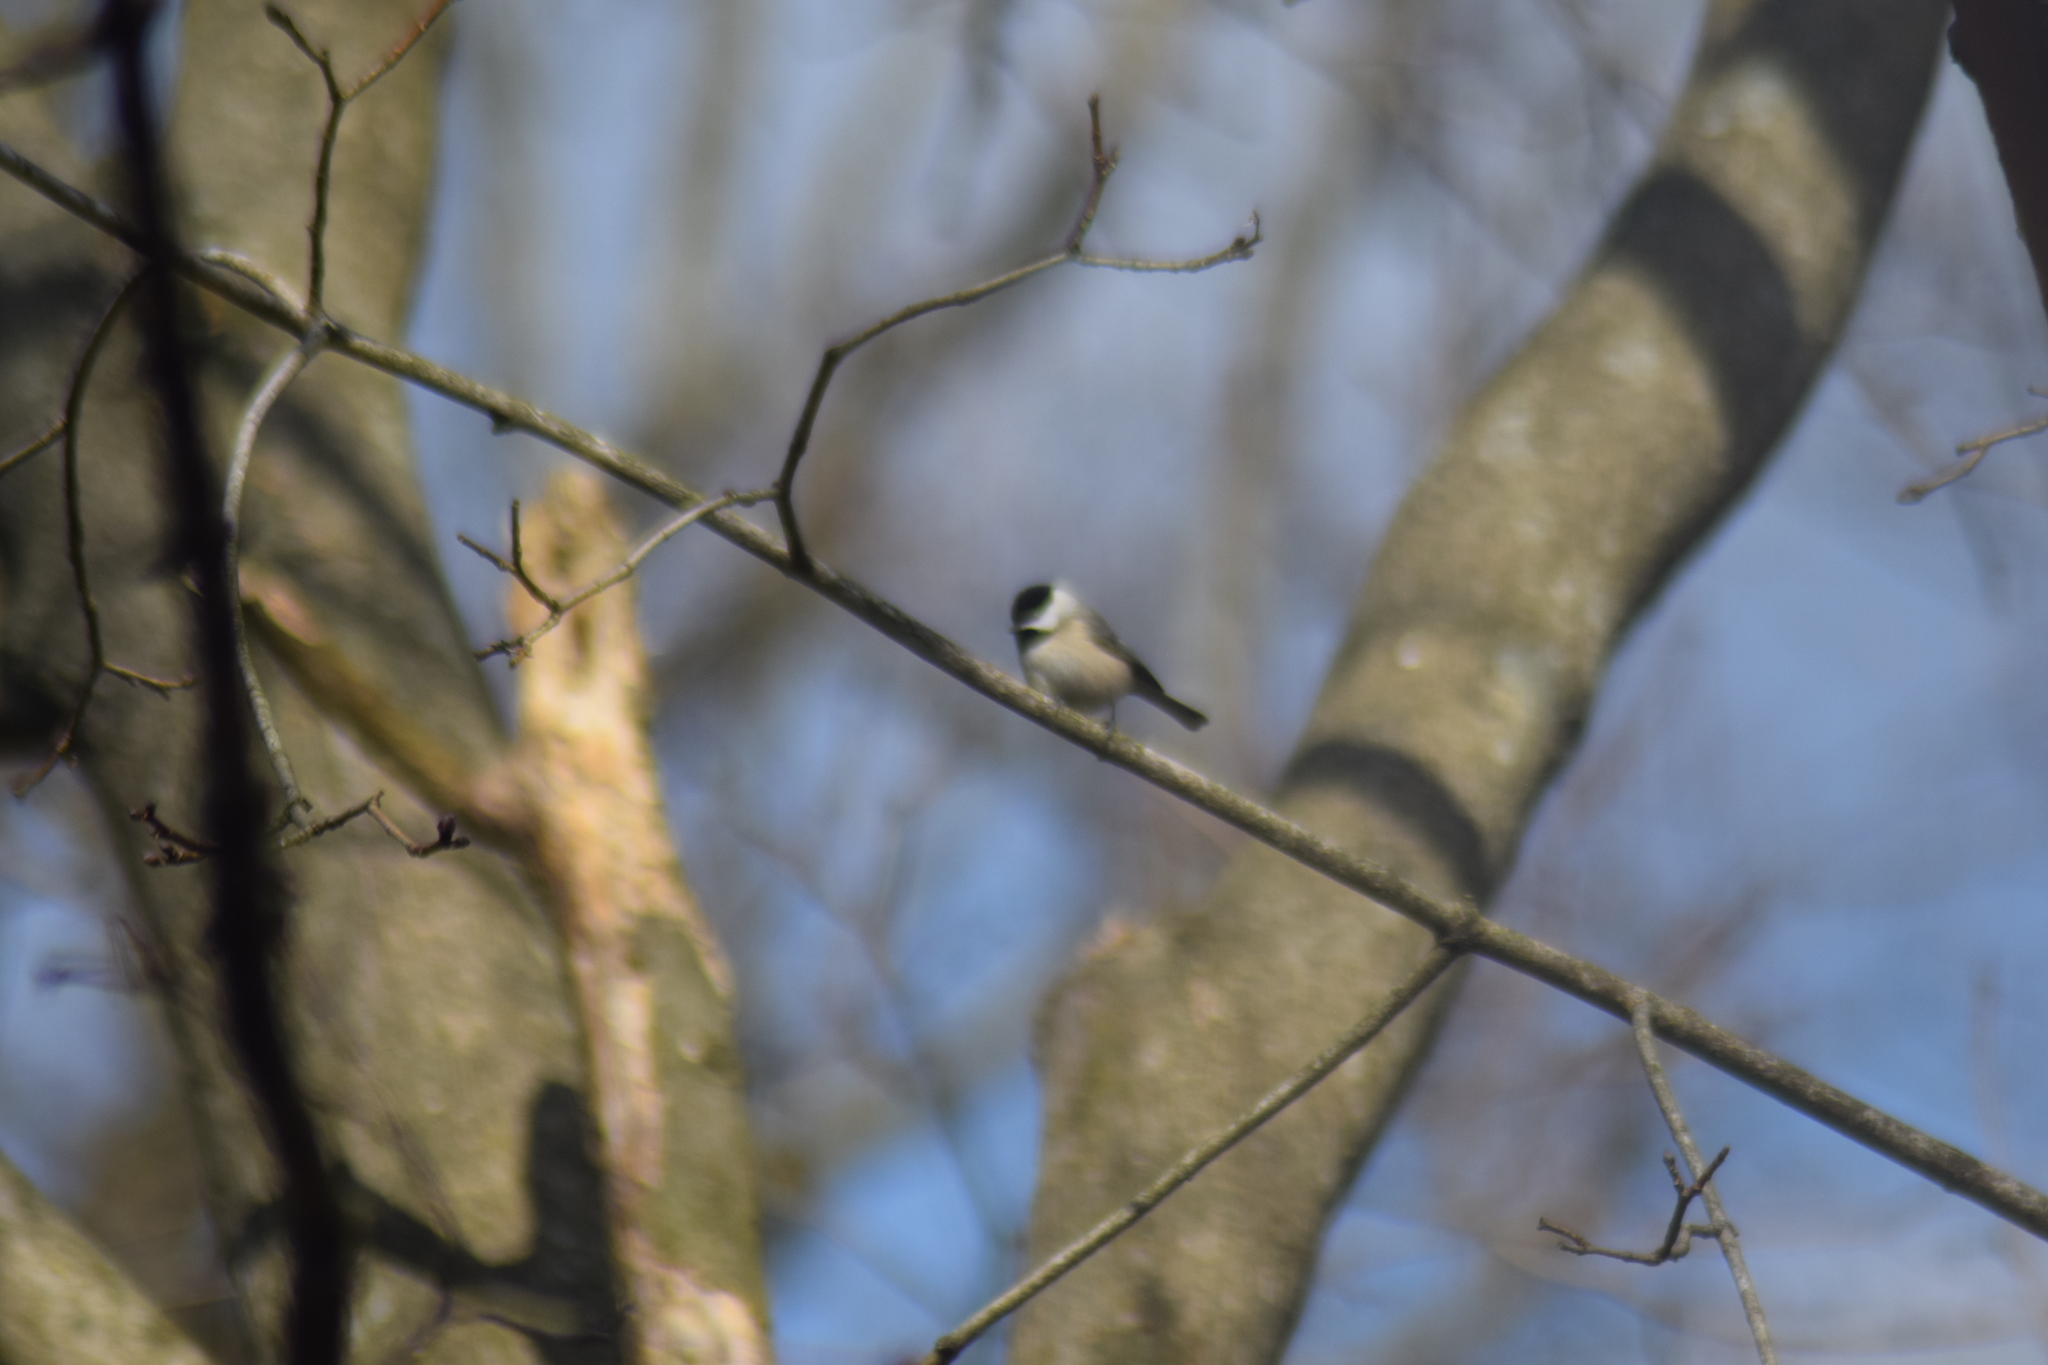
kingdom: Animalia
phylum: Chordata
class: Aves
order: Passeriformes
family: Paridae
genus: Poecile
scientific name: Poecile carolinensis
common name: Carolina chickadee
